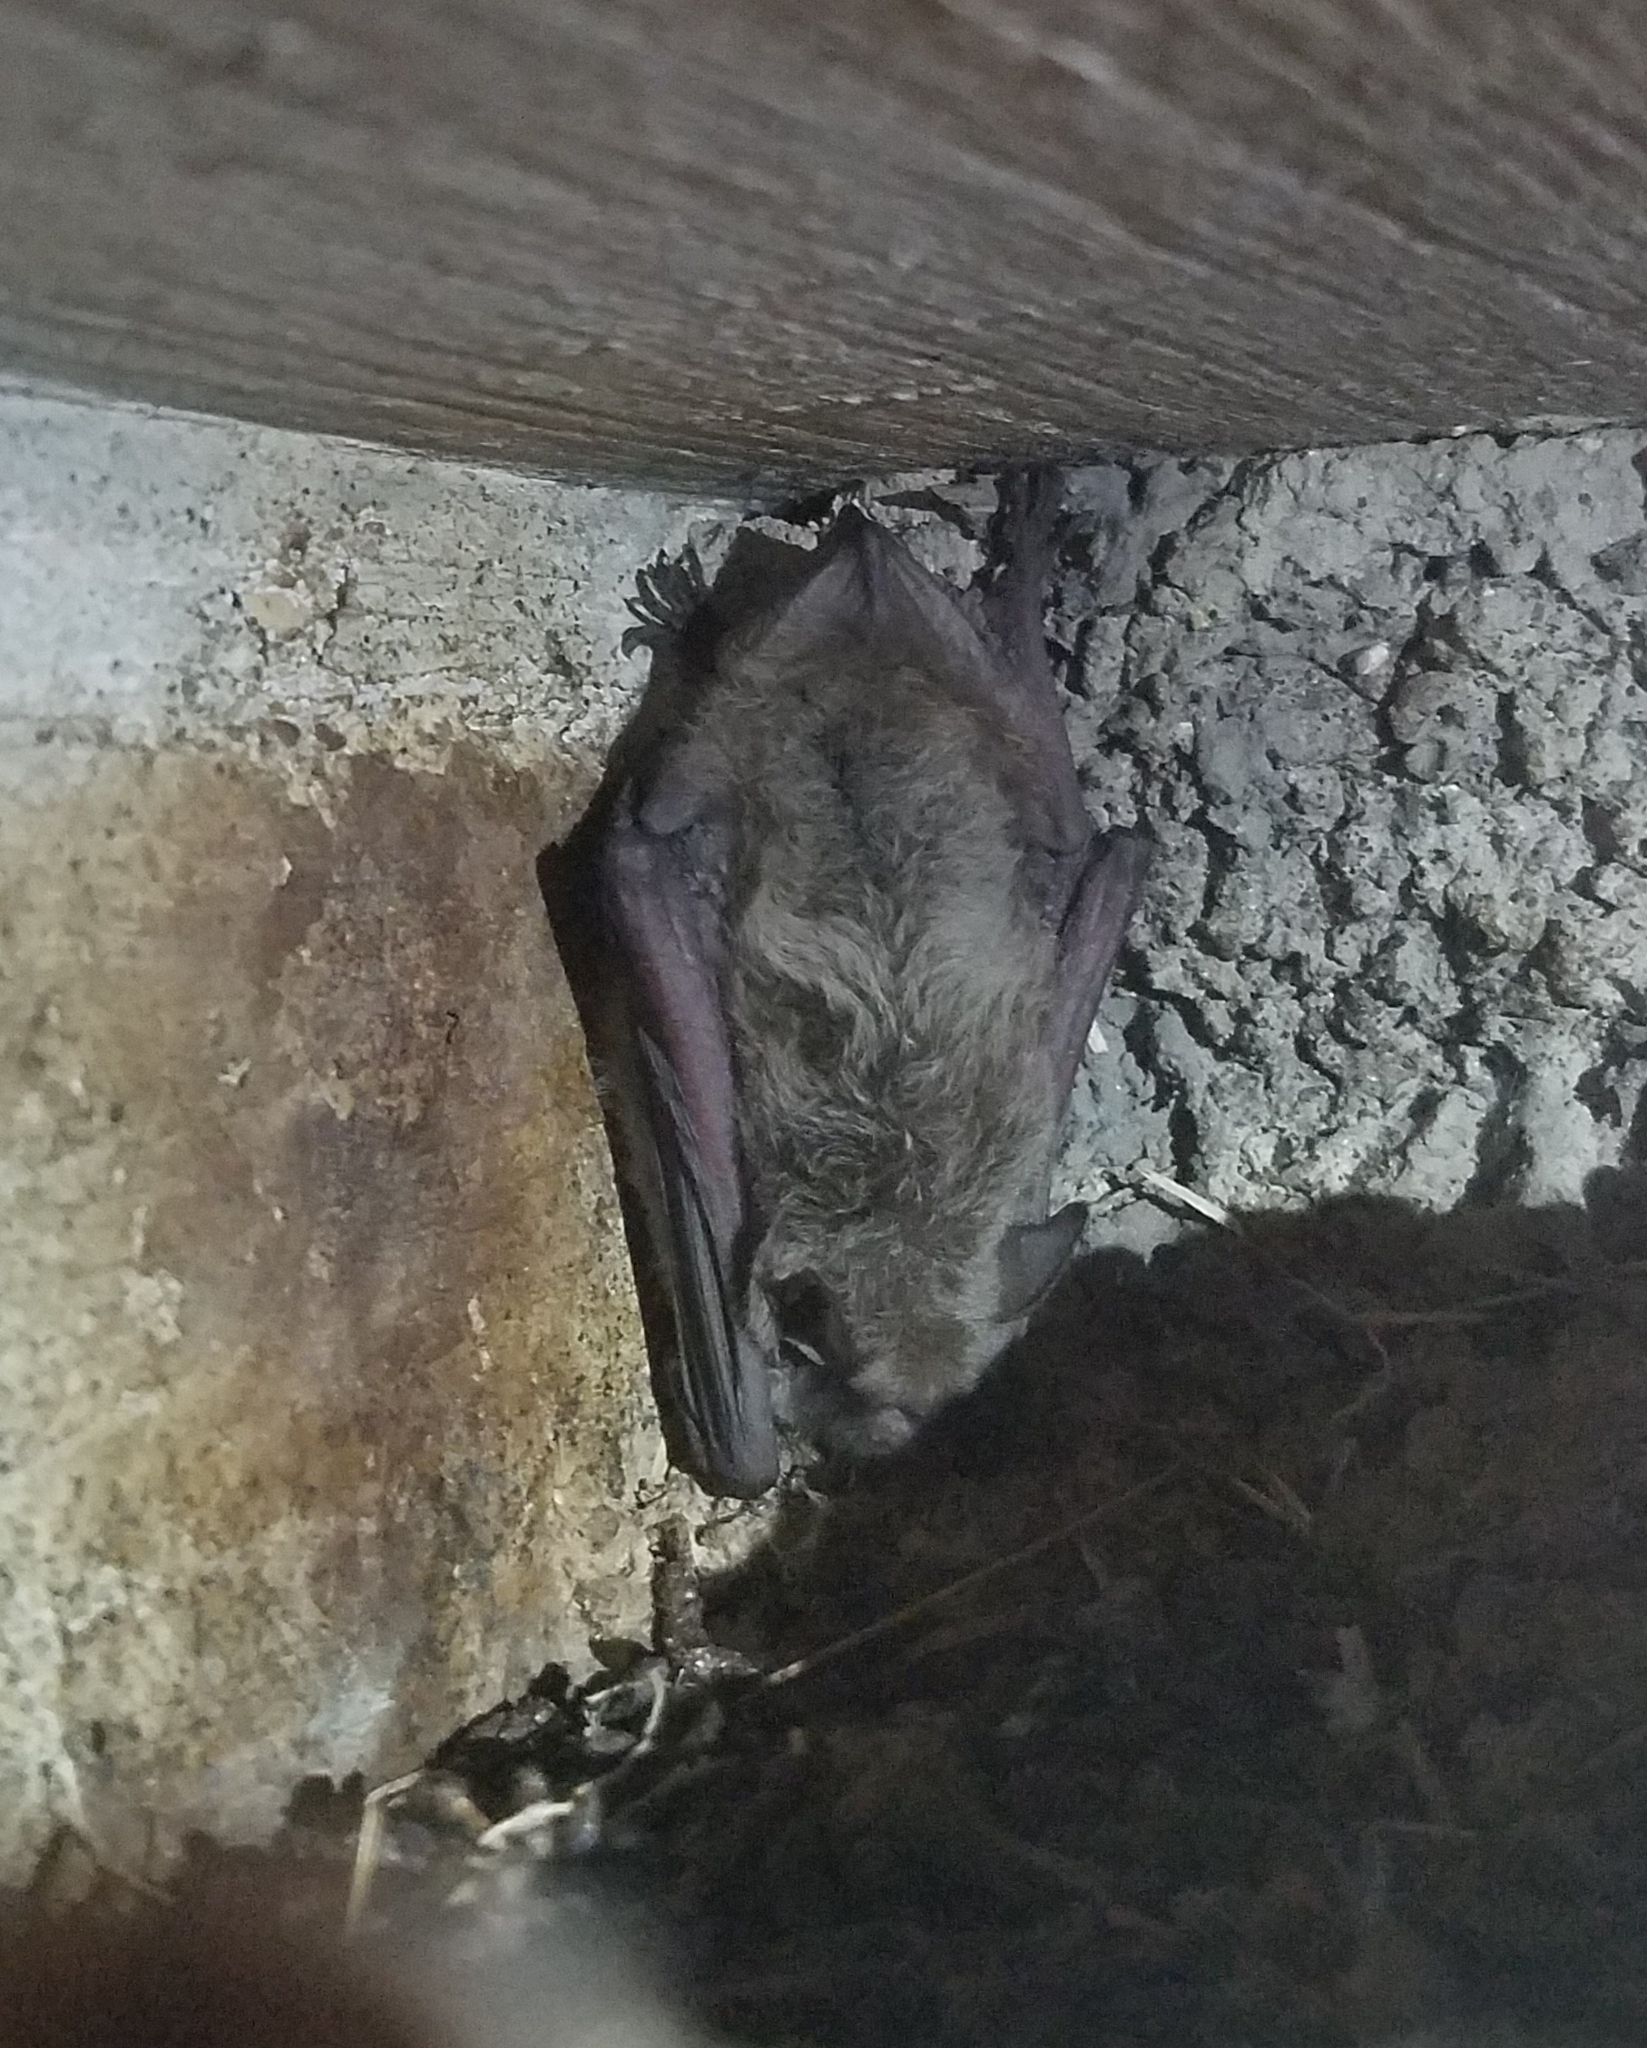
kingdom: Animalia
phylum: Chordata
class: Mammalia
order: Chiroptera
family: Vespertilionidae
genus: Myotis
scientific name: Myotis velifer
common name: Cave myotis
